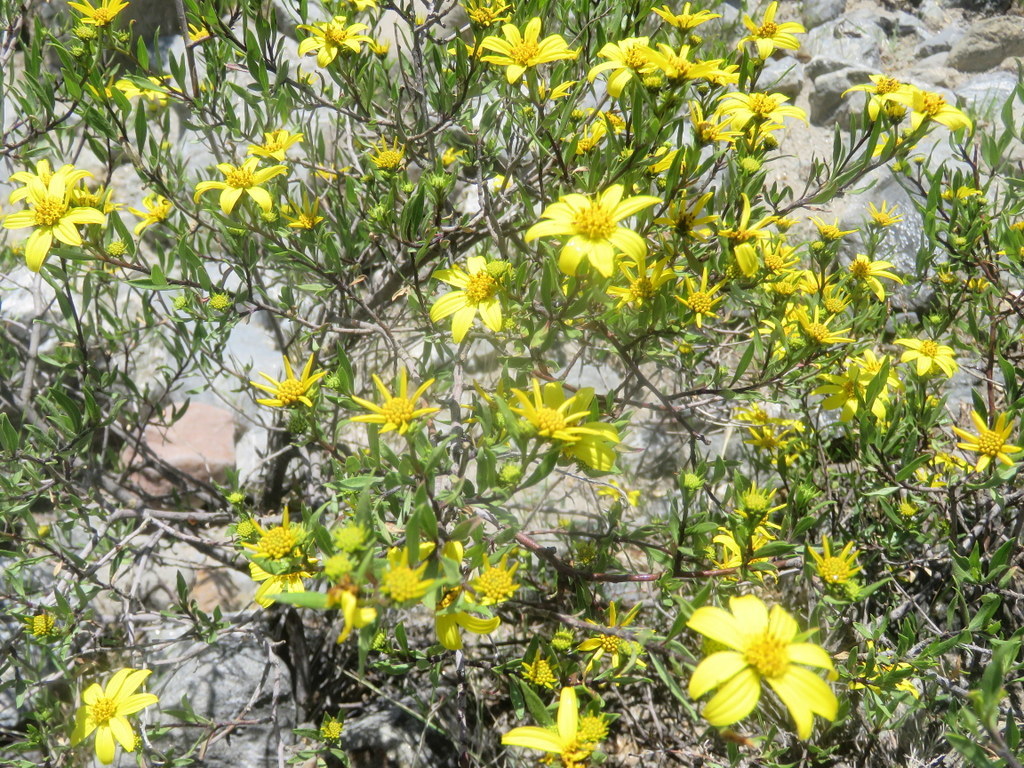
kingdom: Plantae
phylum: Tracheophyta
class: Magnoliopsida
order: Asterales
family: Asteraceae
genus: Flourensia
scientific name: Flourensia fiebrigii
